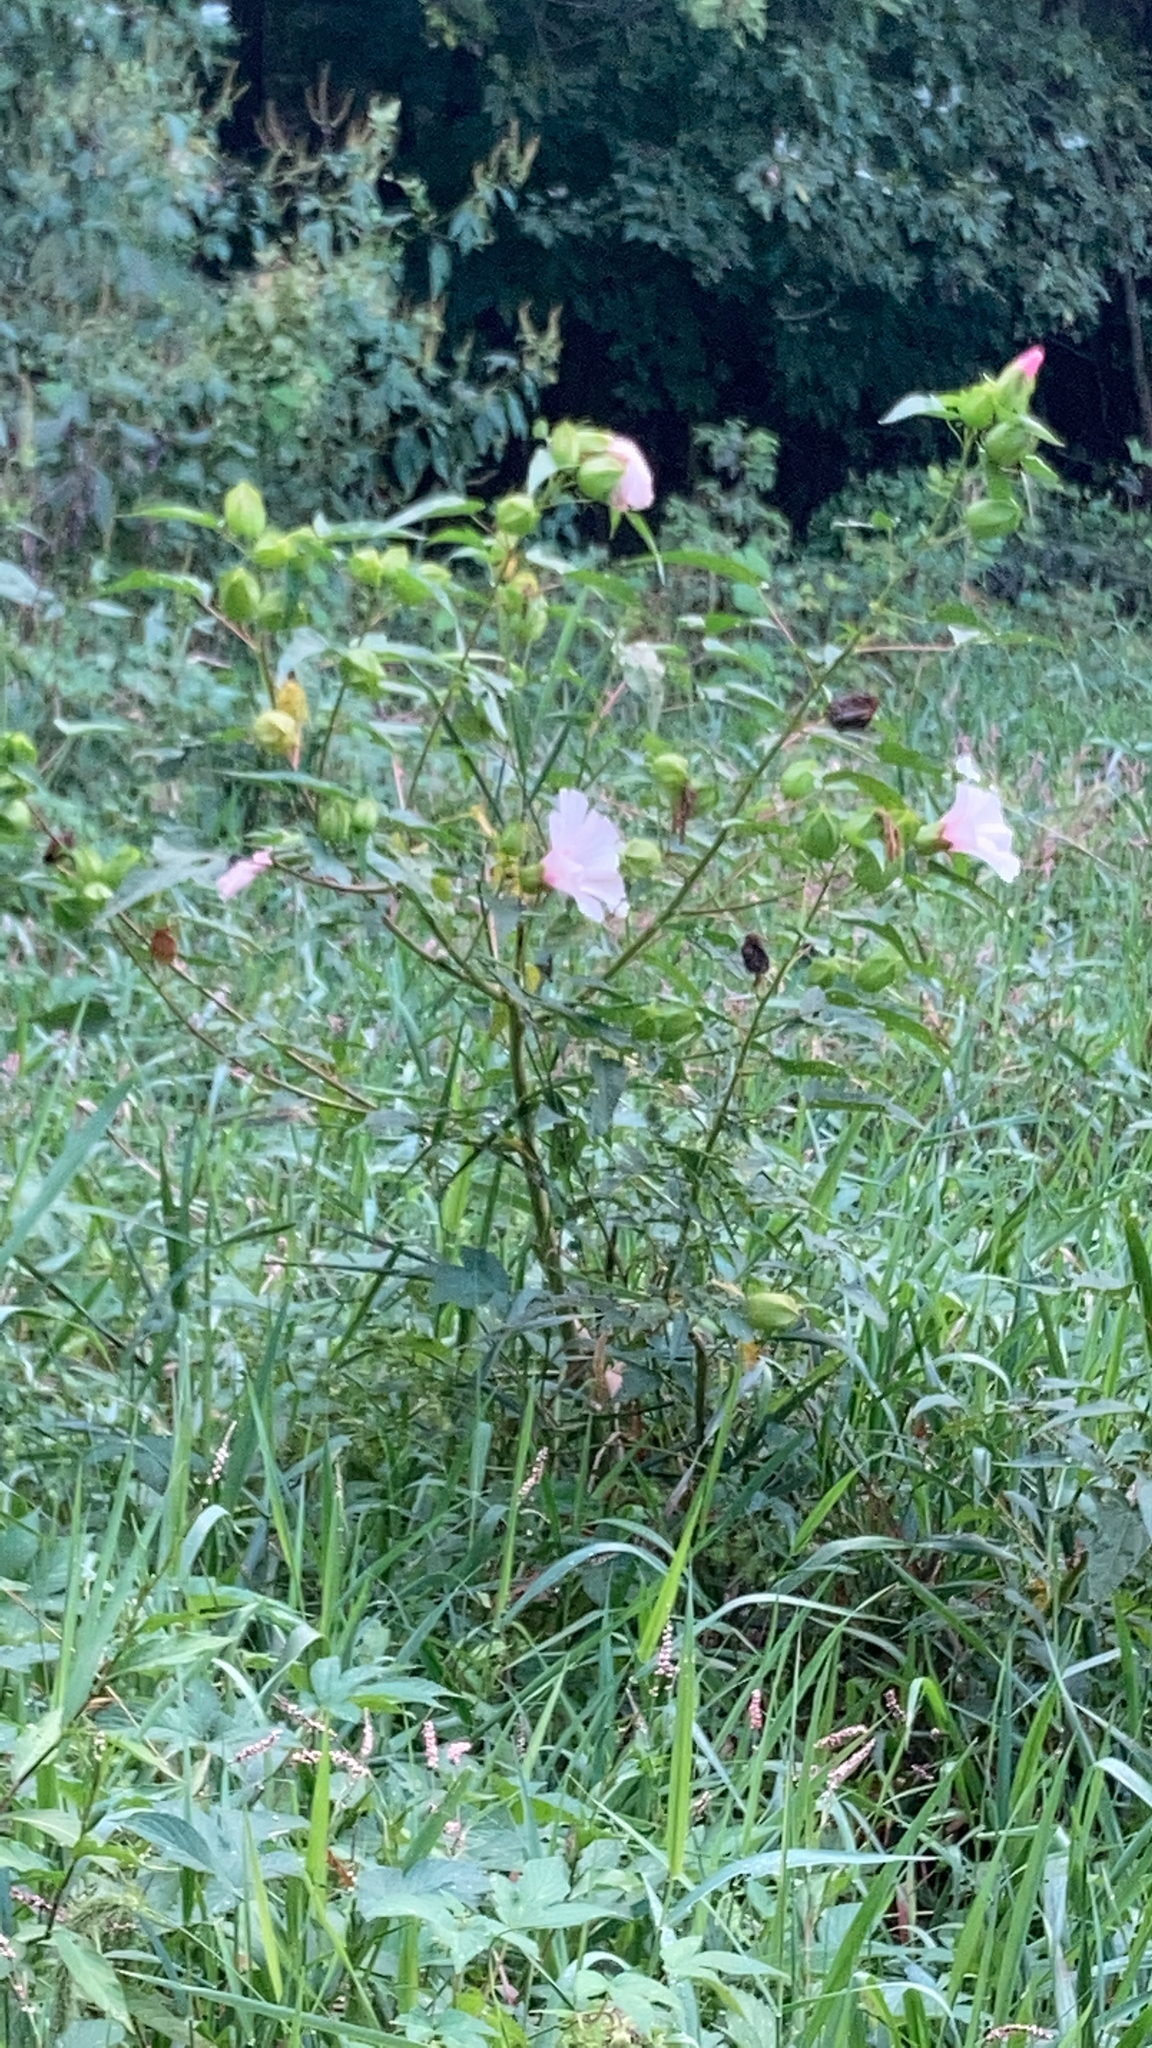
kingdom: Plantae
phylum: Tracheophyta
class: Magnoliopsida
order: Malvales
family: Malvaceae
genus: Hibiscus
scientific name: Hibiscus laevis
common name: Scarlet rose-mallow
